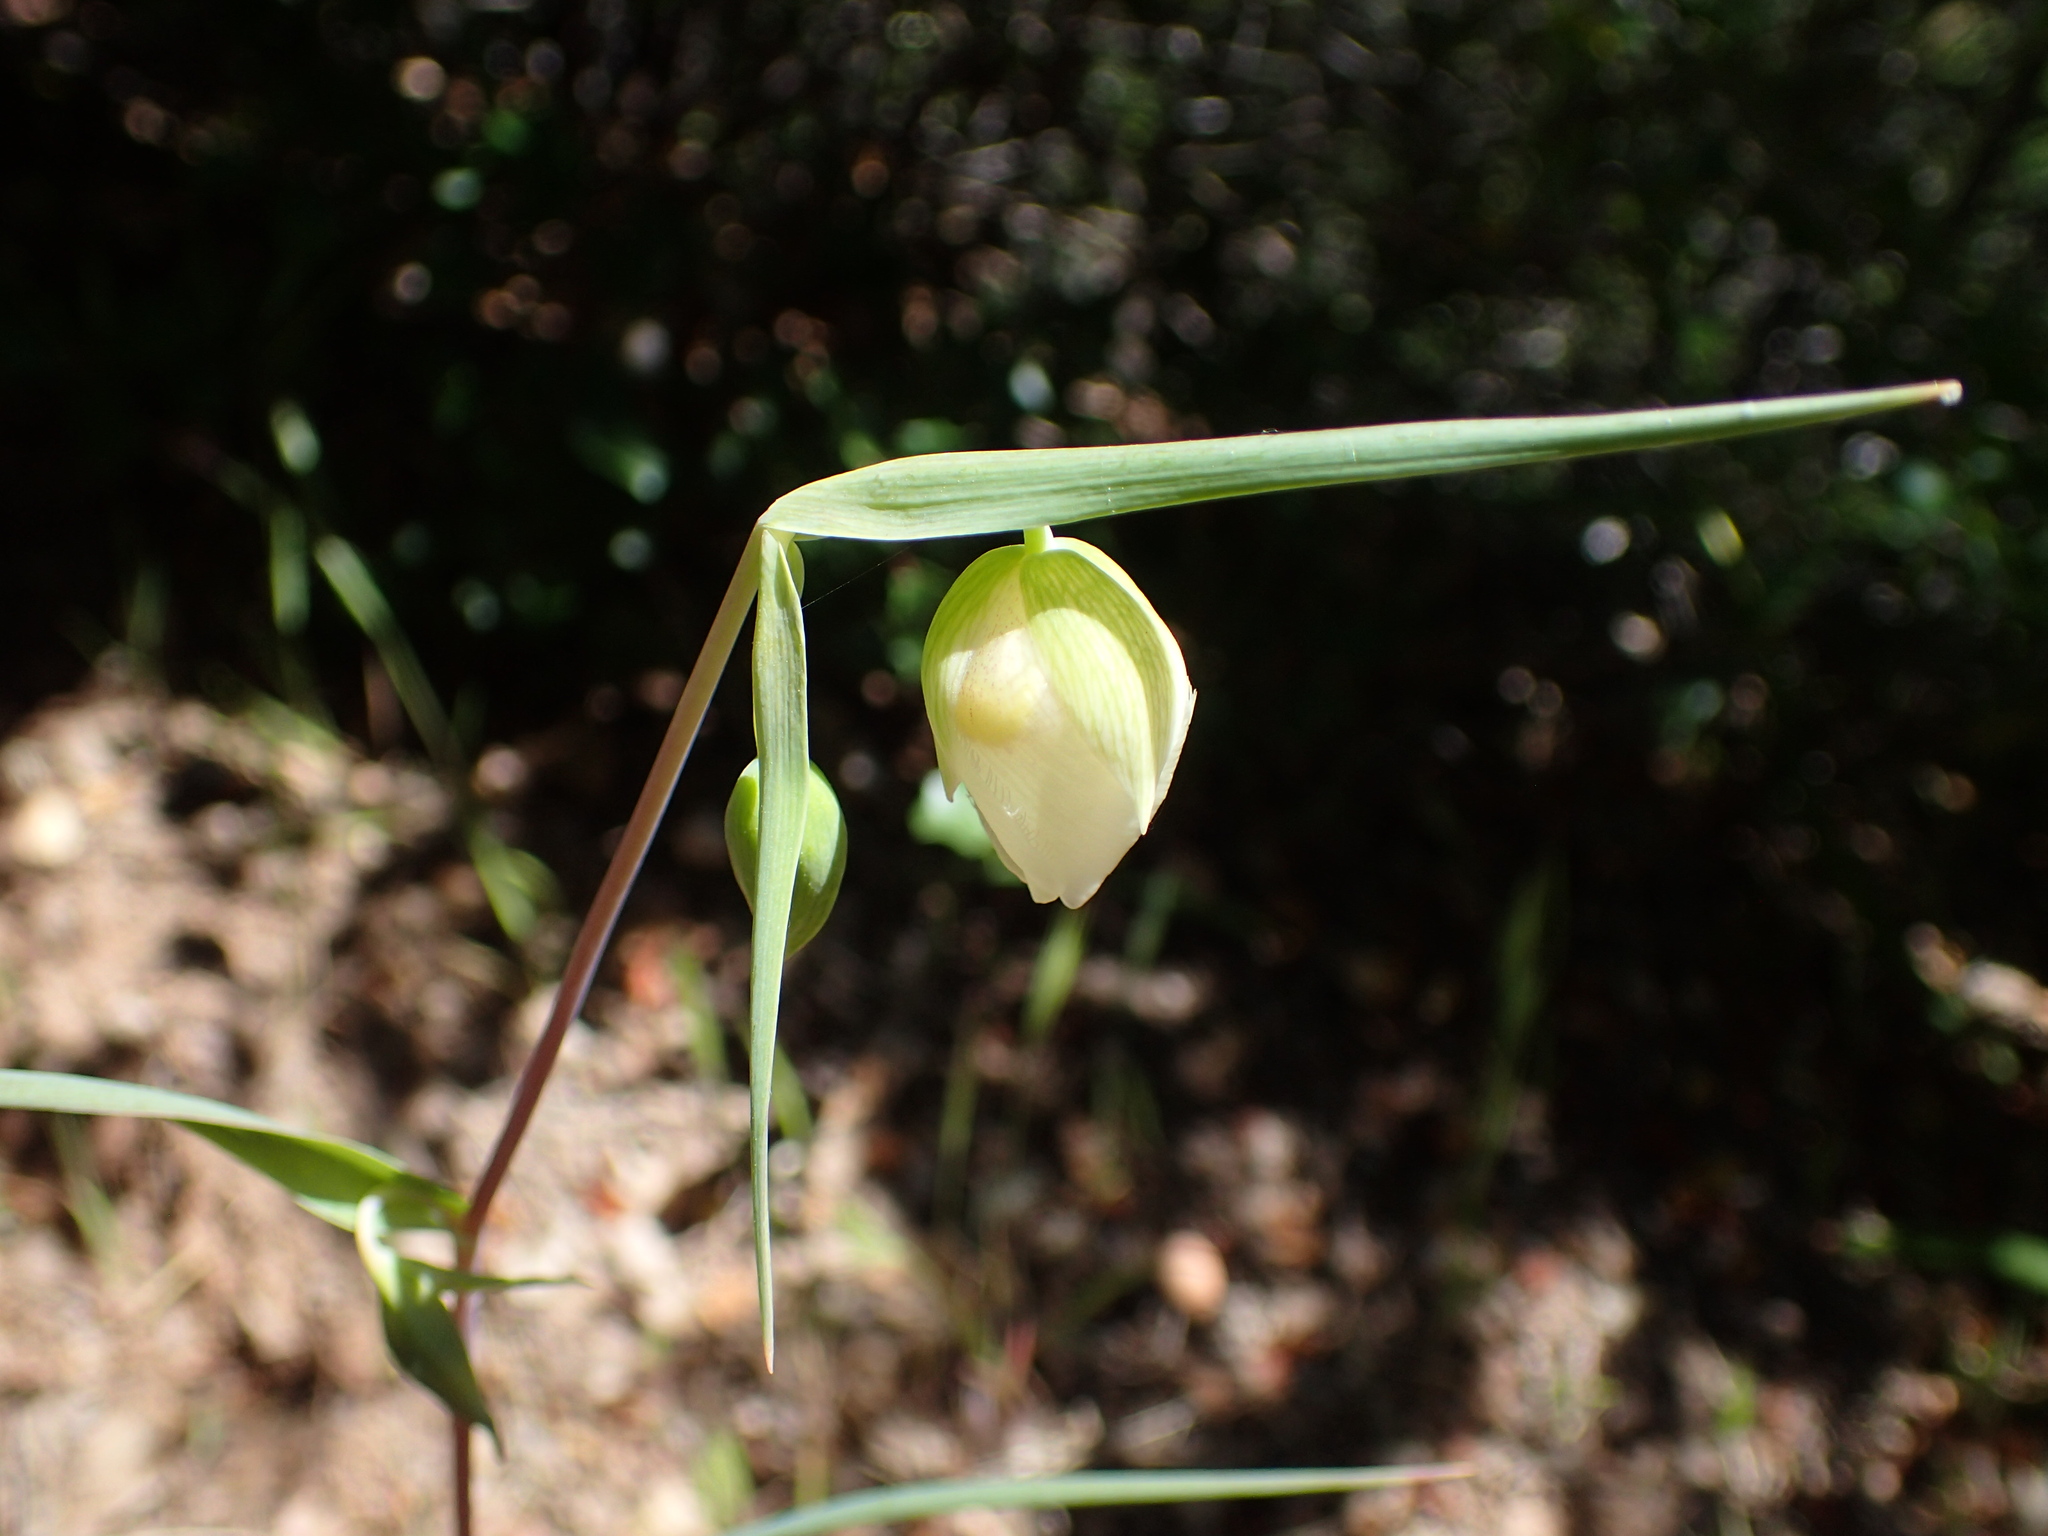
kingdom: Plantae
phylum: Tracheophyta
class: Liliopsida
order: Liliales
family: Liliaceae
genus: Calochortus
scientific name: Calochortus albus
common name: Fairy-lantern
